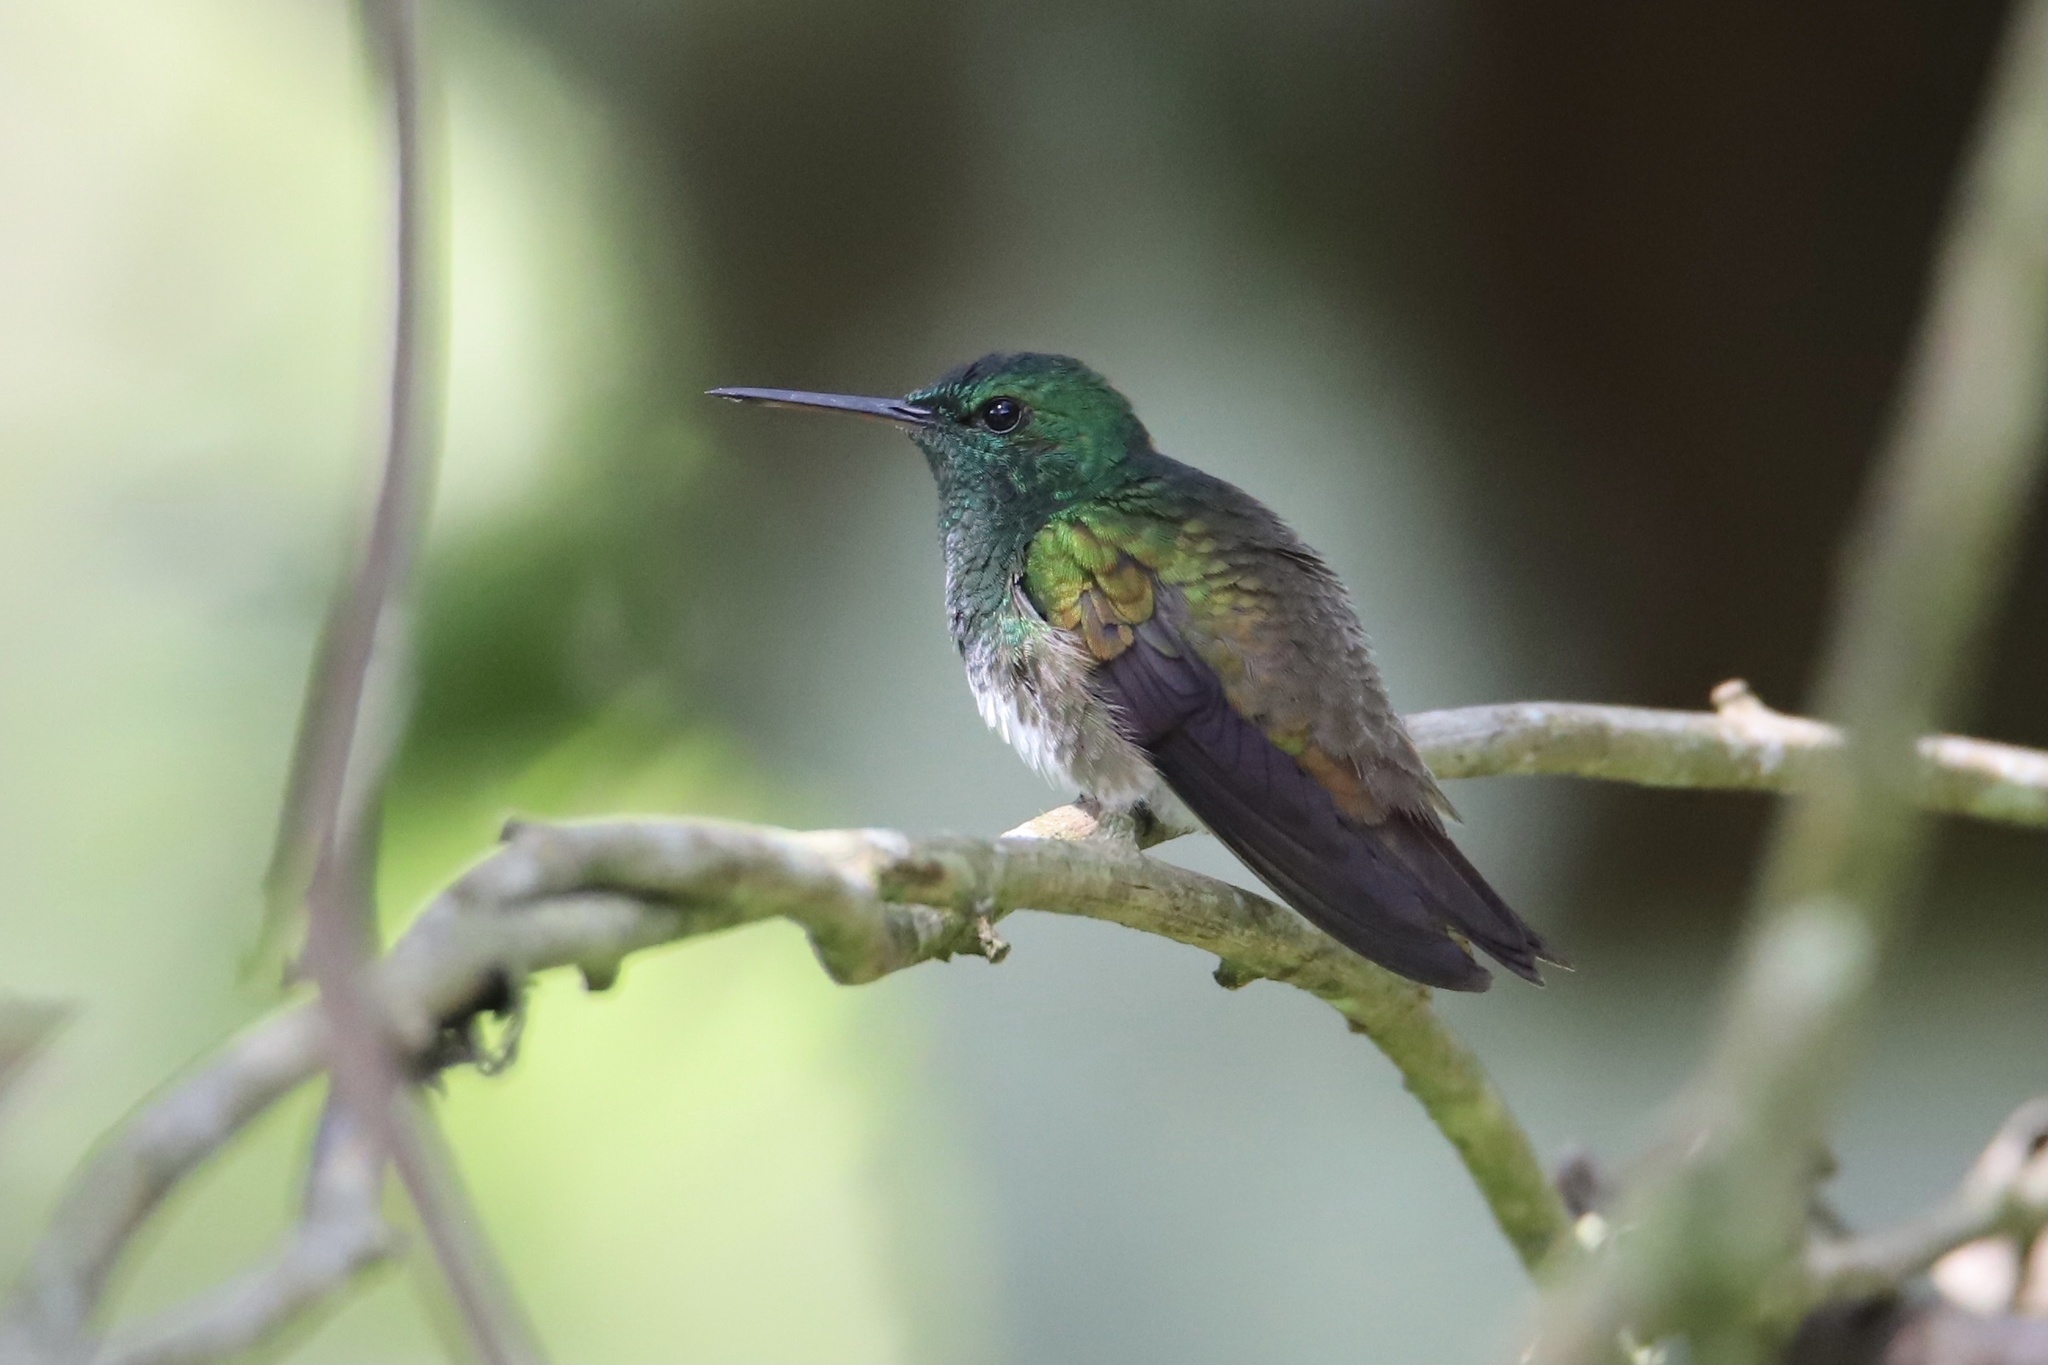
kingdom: Animalia
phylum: Chordata
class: Aves
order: Apodiformes
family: Trochilidae
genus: Saucerottia
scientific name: Saucerottia edward
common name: Snowy-bellied hummingbird
